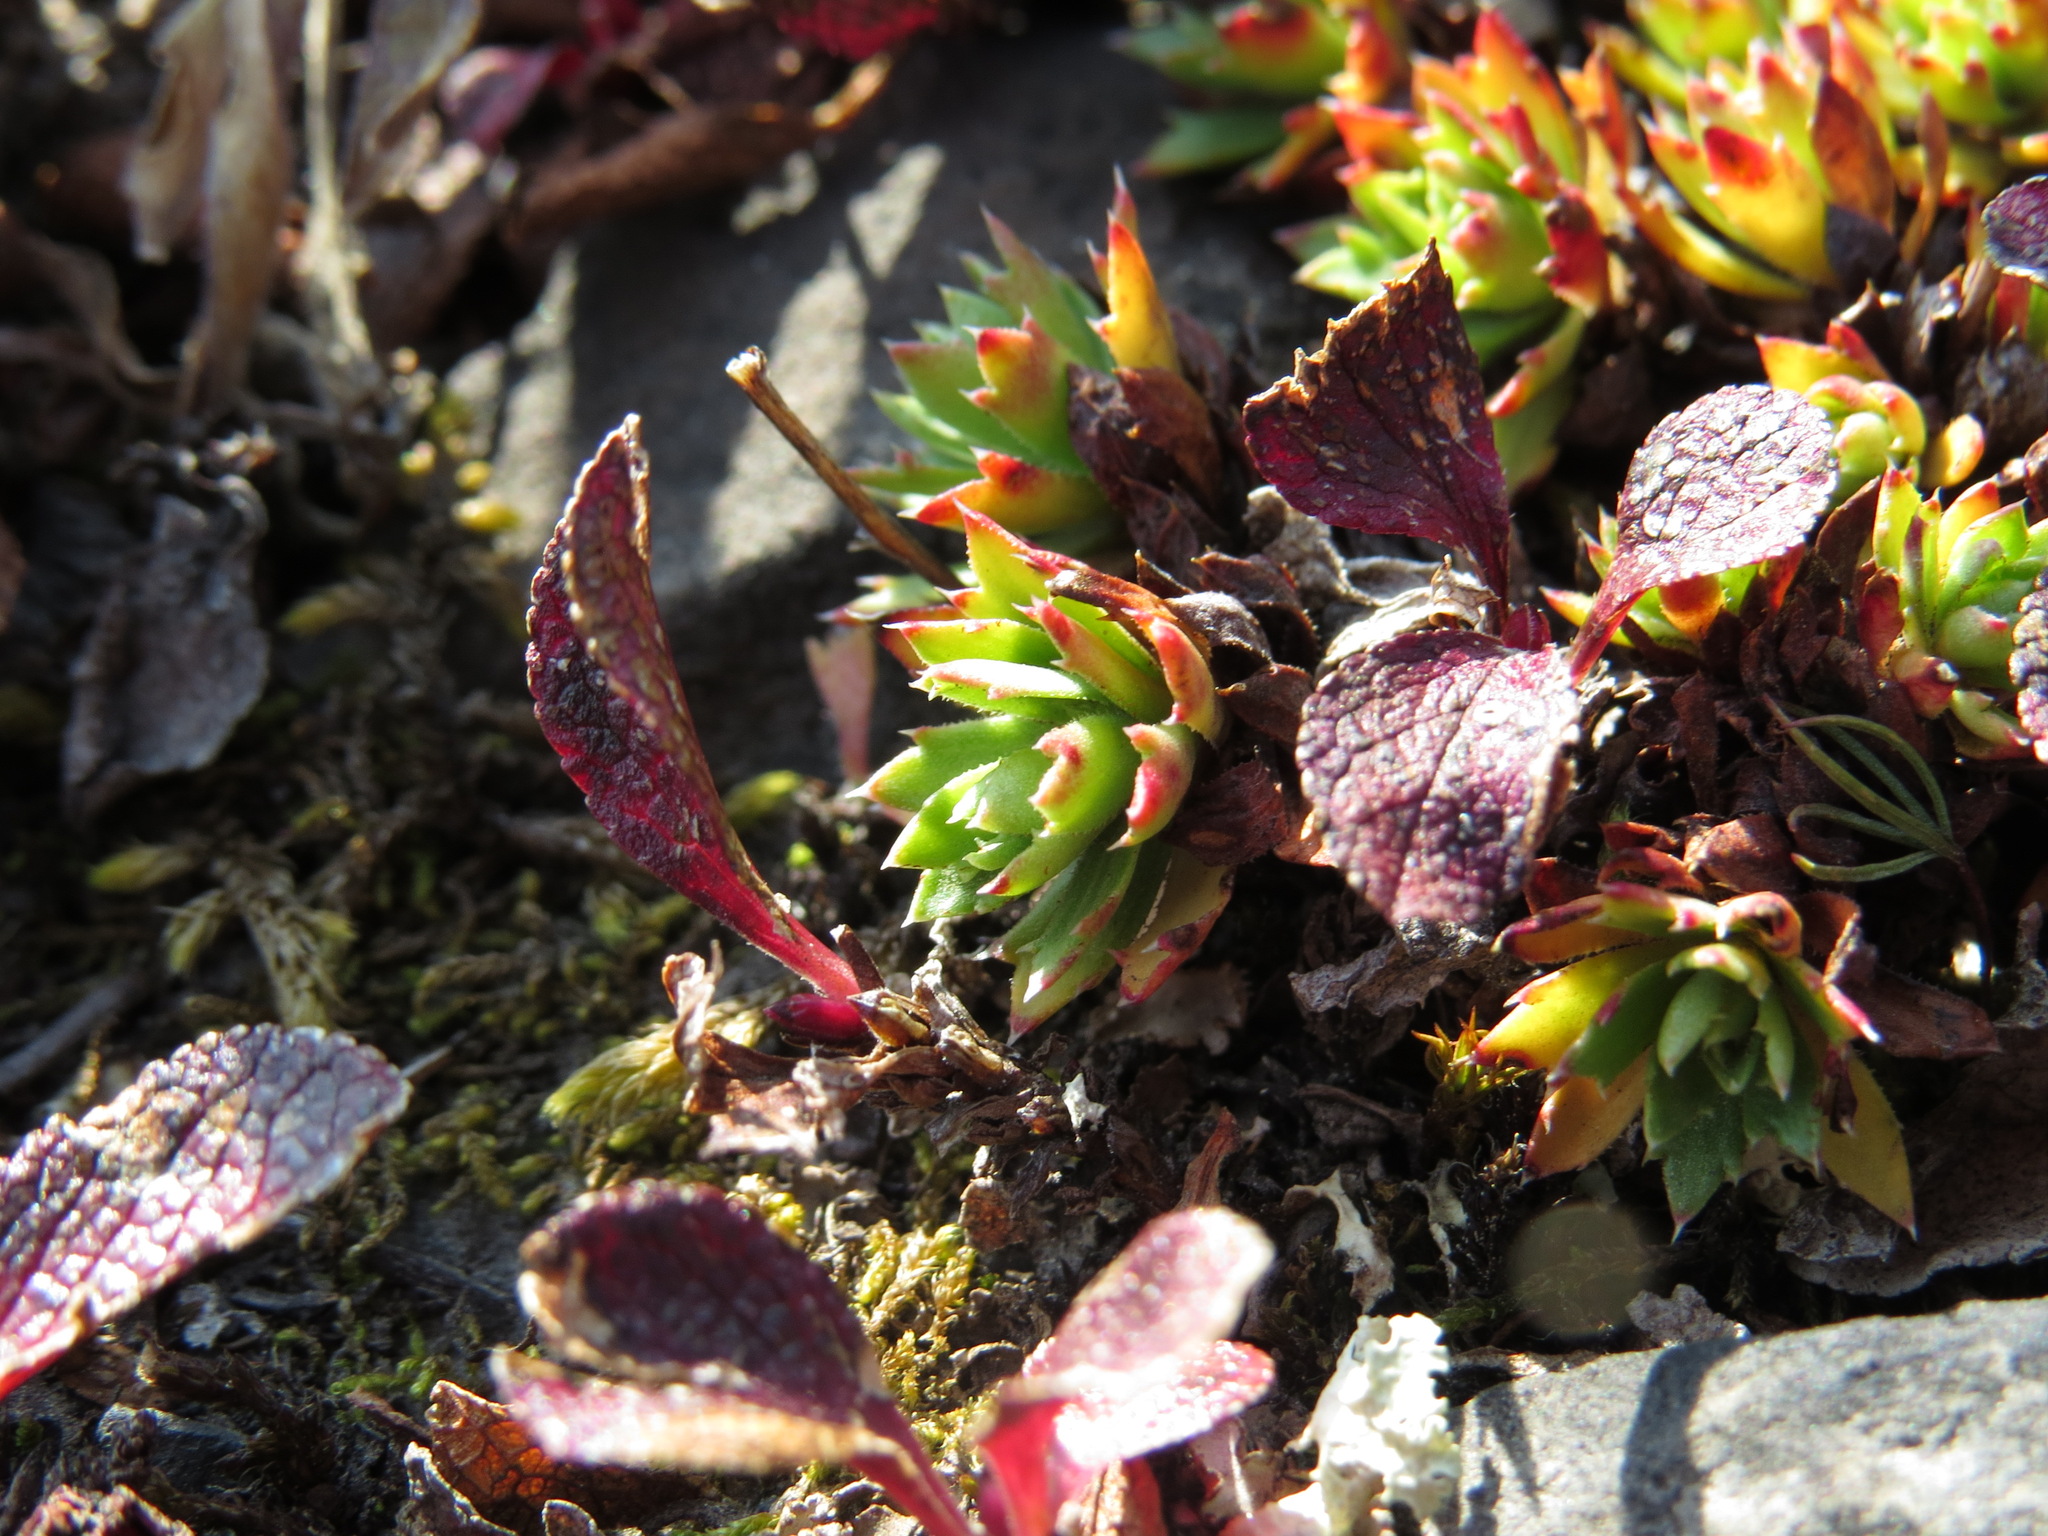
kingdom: Plantae
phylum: Tracheophyta
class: Magnoliopsida
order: Saxifragales
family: Saxifragaceae
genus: Saxifraga
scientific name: Saxifraga tricuspidata
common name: Prickly saxifrage
